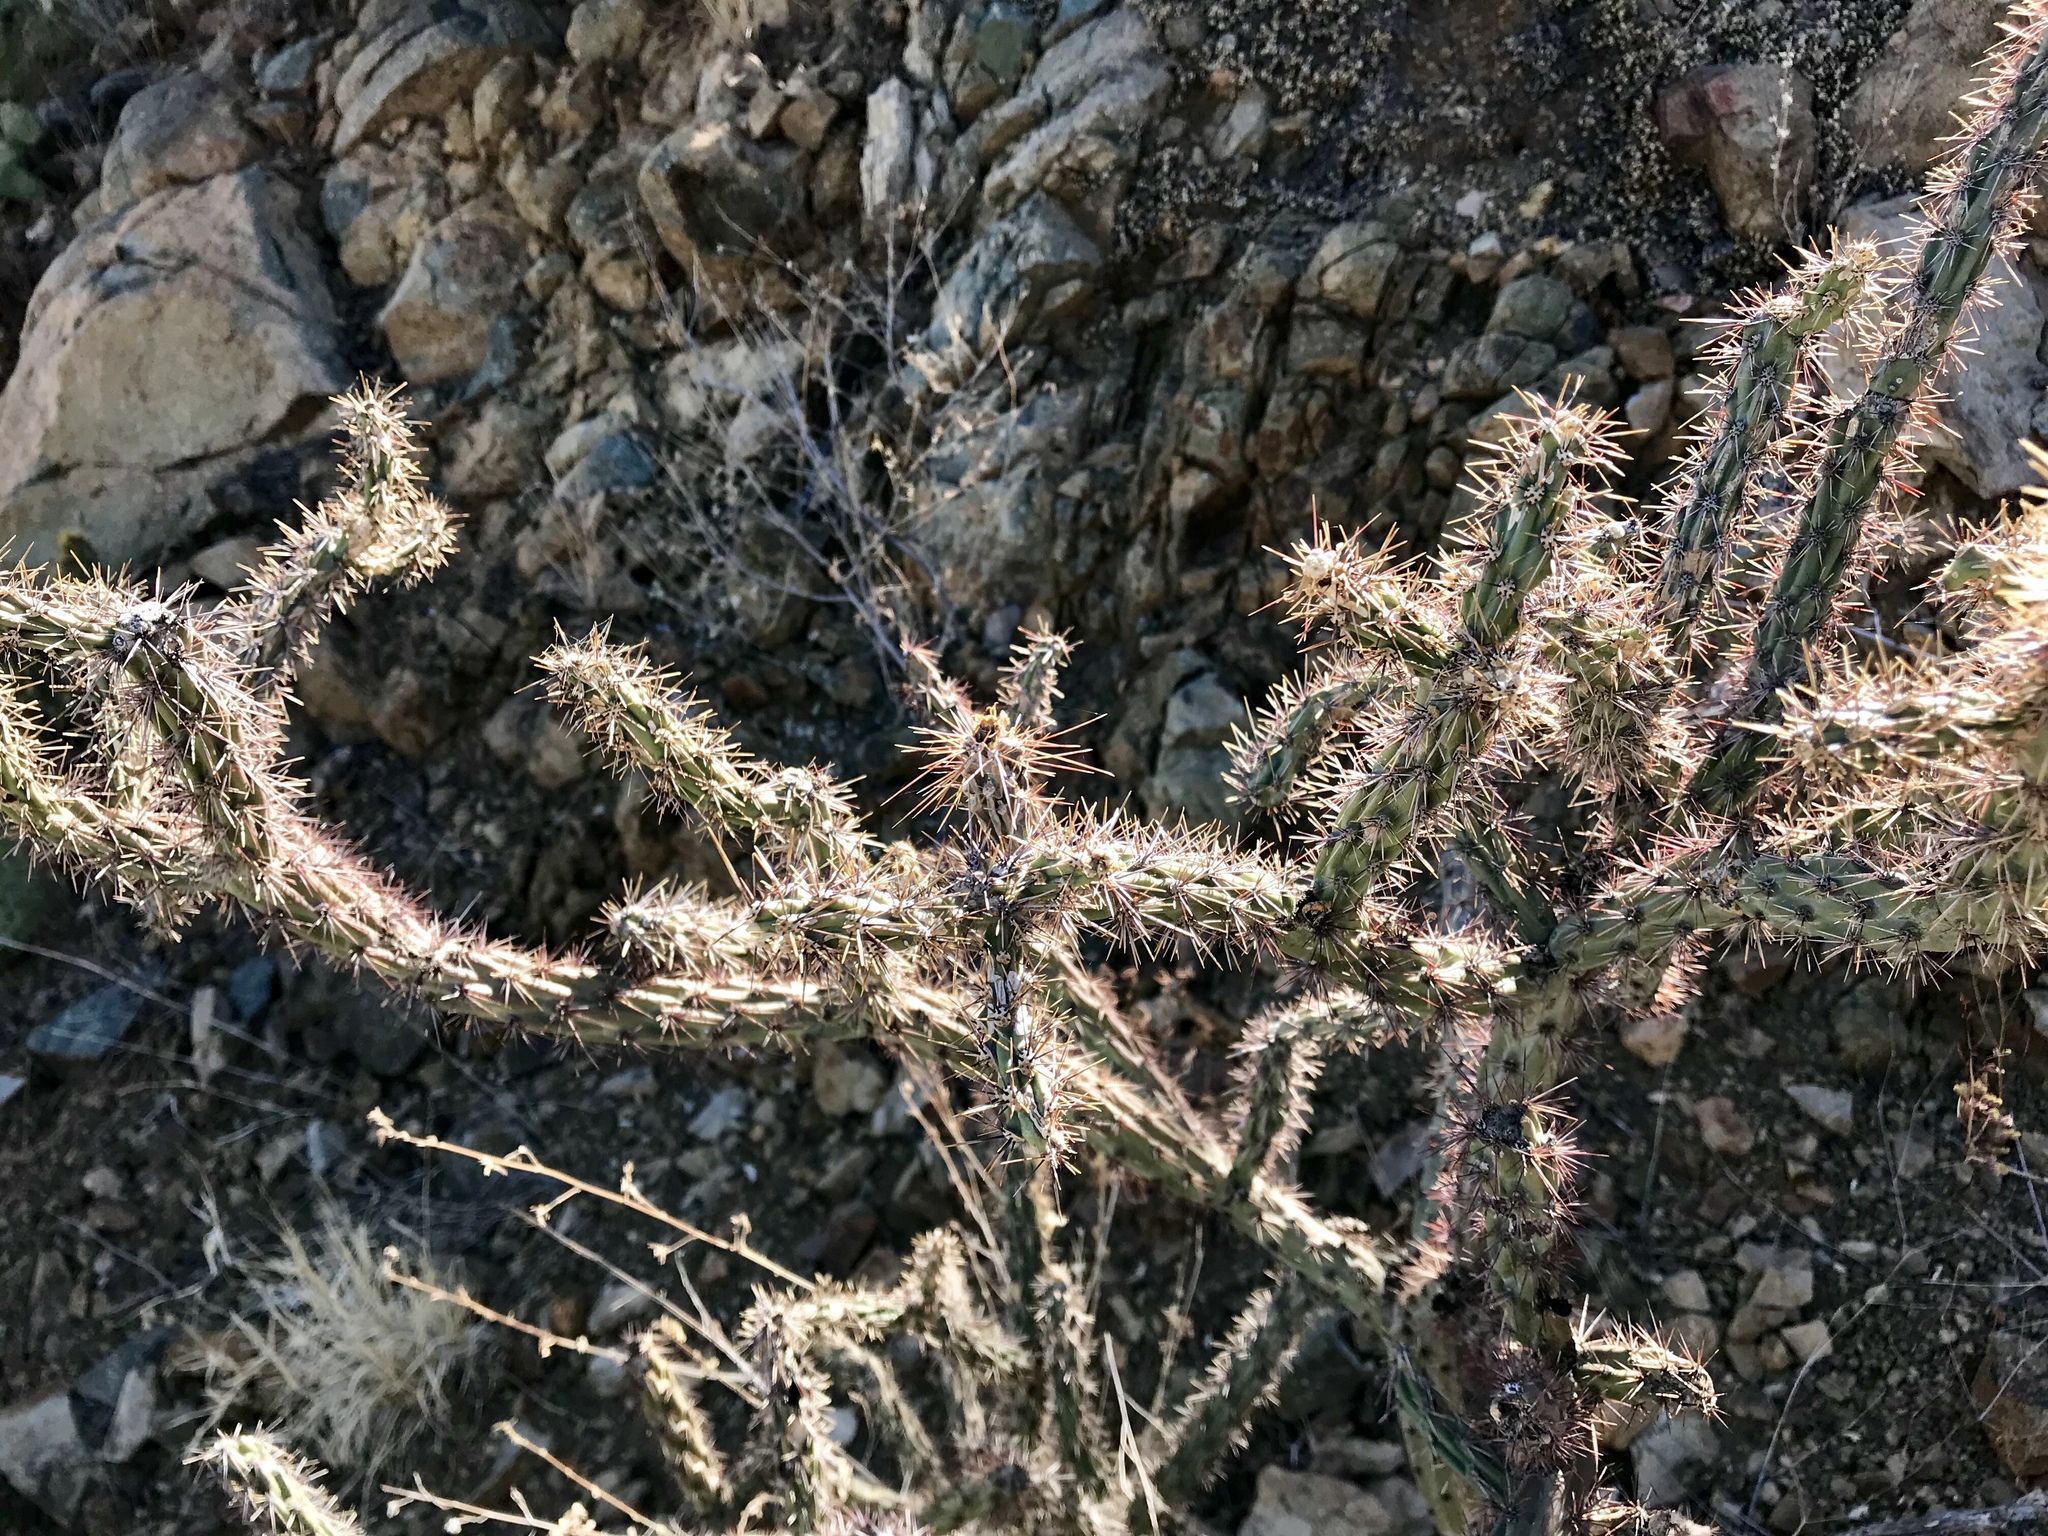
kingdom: Plantae
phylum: Tracheophyta
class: Magnoliopsida
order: Caryophyllales
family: Cactaceae
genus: Cylindropuntia
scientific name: Cylindropuntia acanthocarpa
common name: Buckhorn cholla
